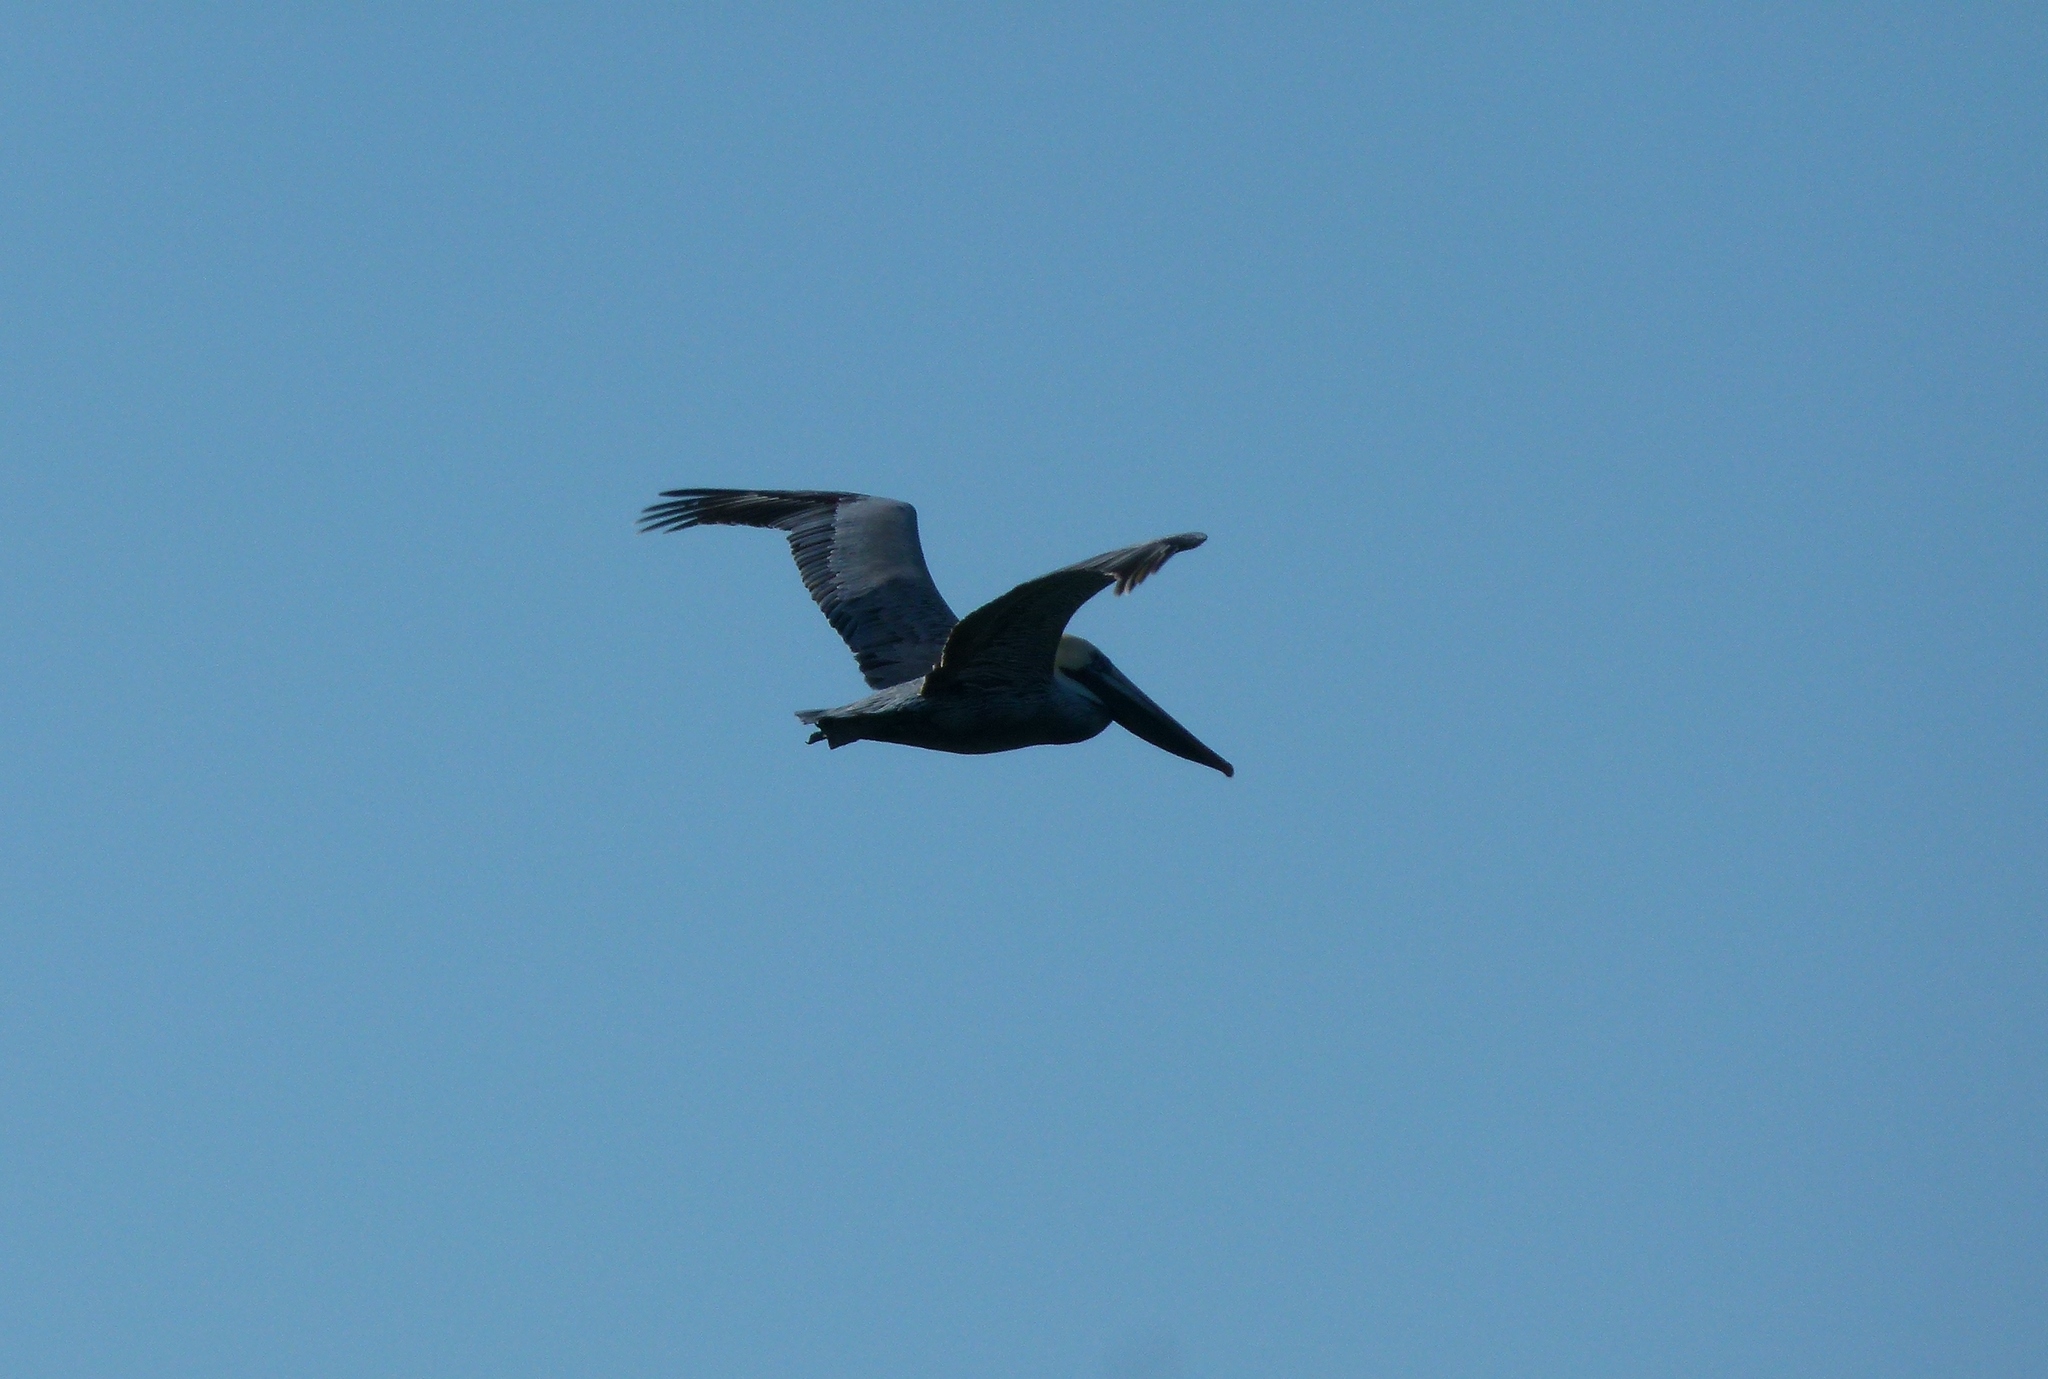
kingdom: Animalia
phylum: Chordata
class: Aves
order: Pelecaniformes
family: Pelecanidae
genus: Pelecanus
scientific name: Pelecanus occidentalis
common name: Brown pelican
